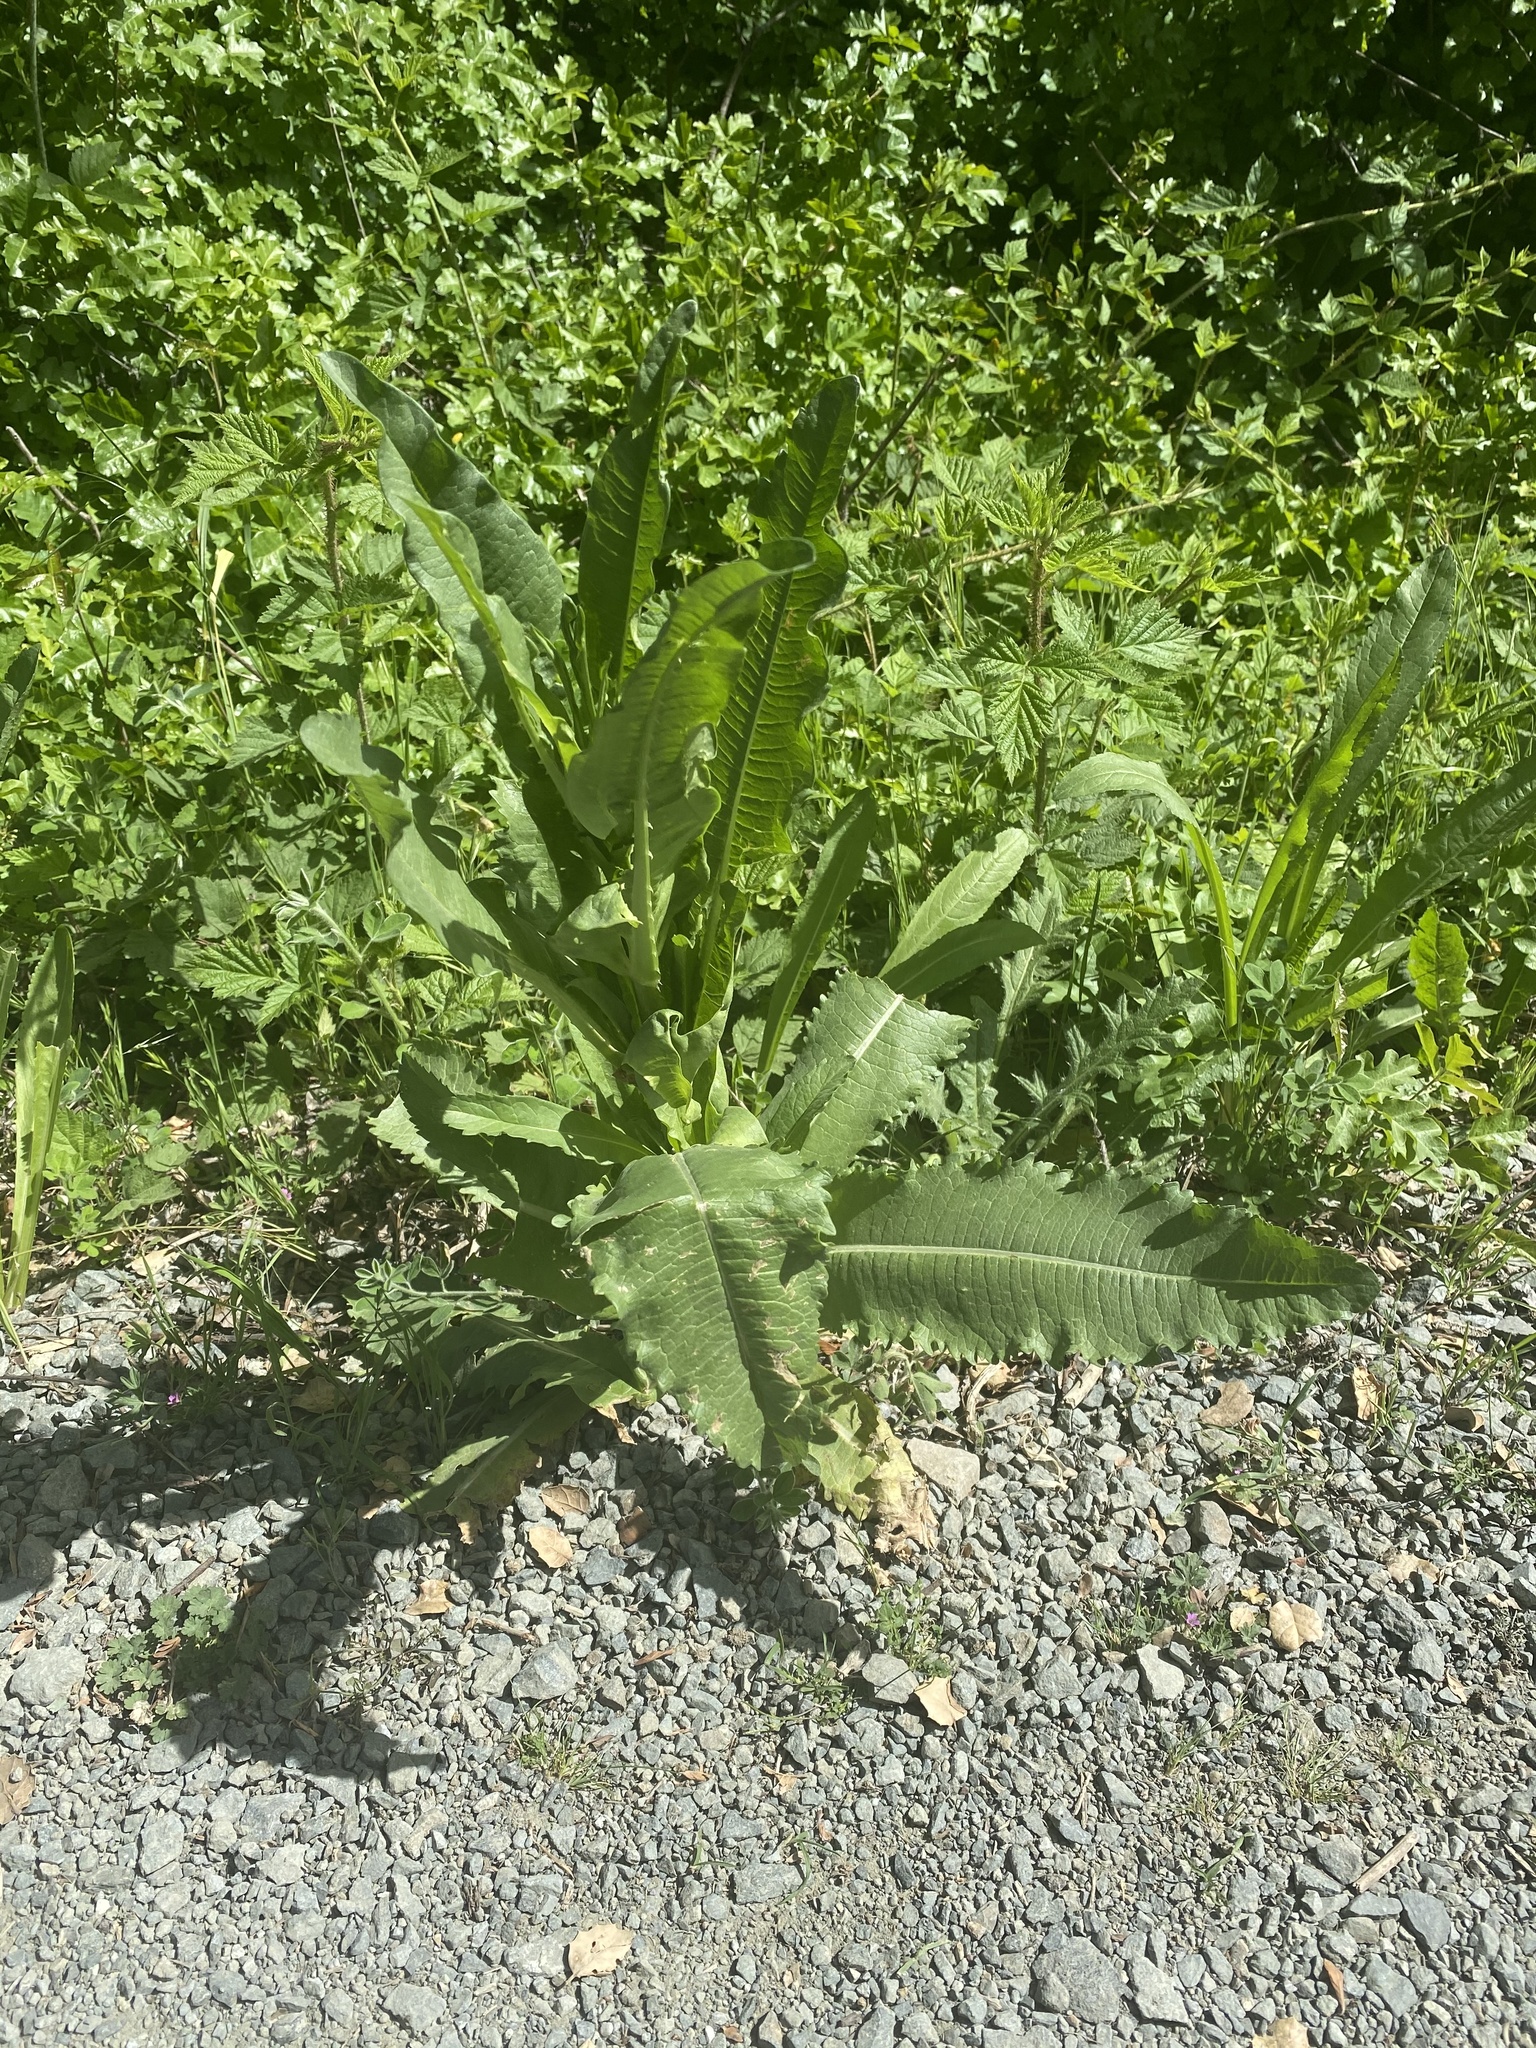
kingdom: Plantae
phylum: Tracheophyta
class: Magnoliopsida
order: Dipsacales
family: Caprifoliaceae
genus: Dipsacus
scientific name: Dipsacus sativus
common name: Fuller's teasel
